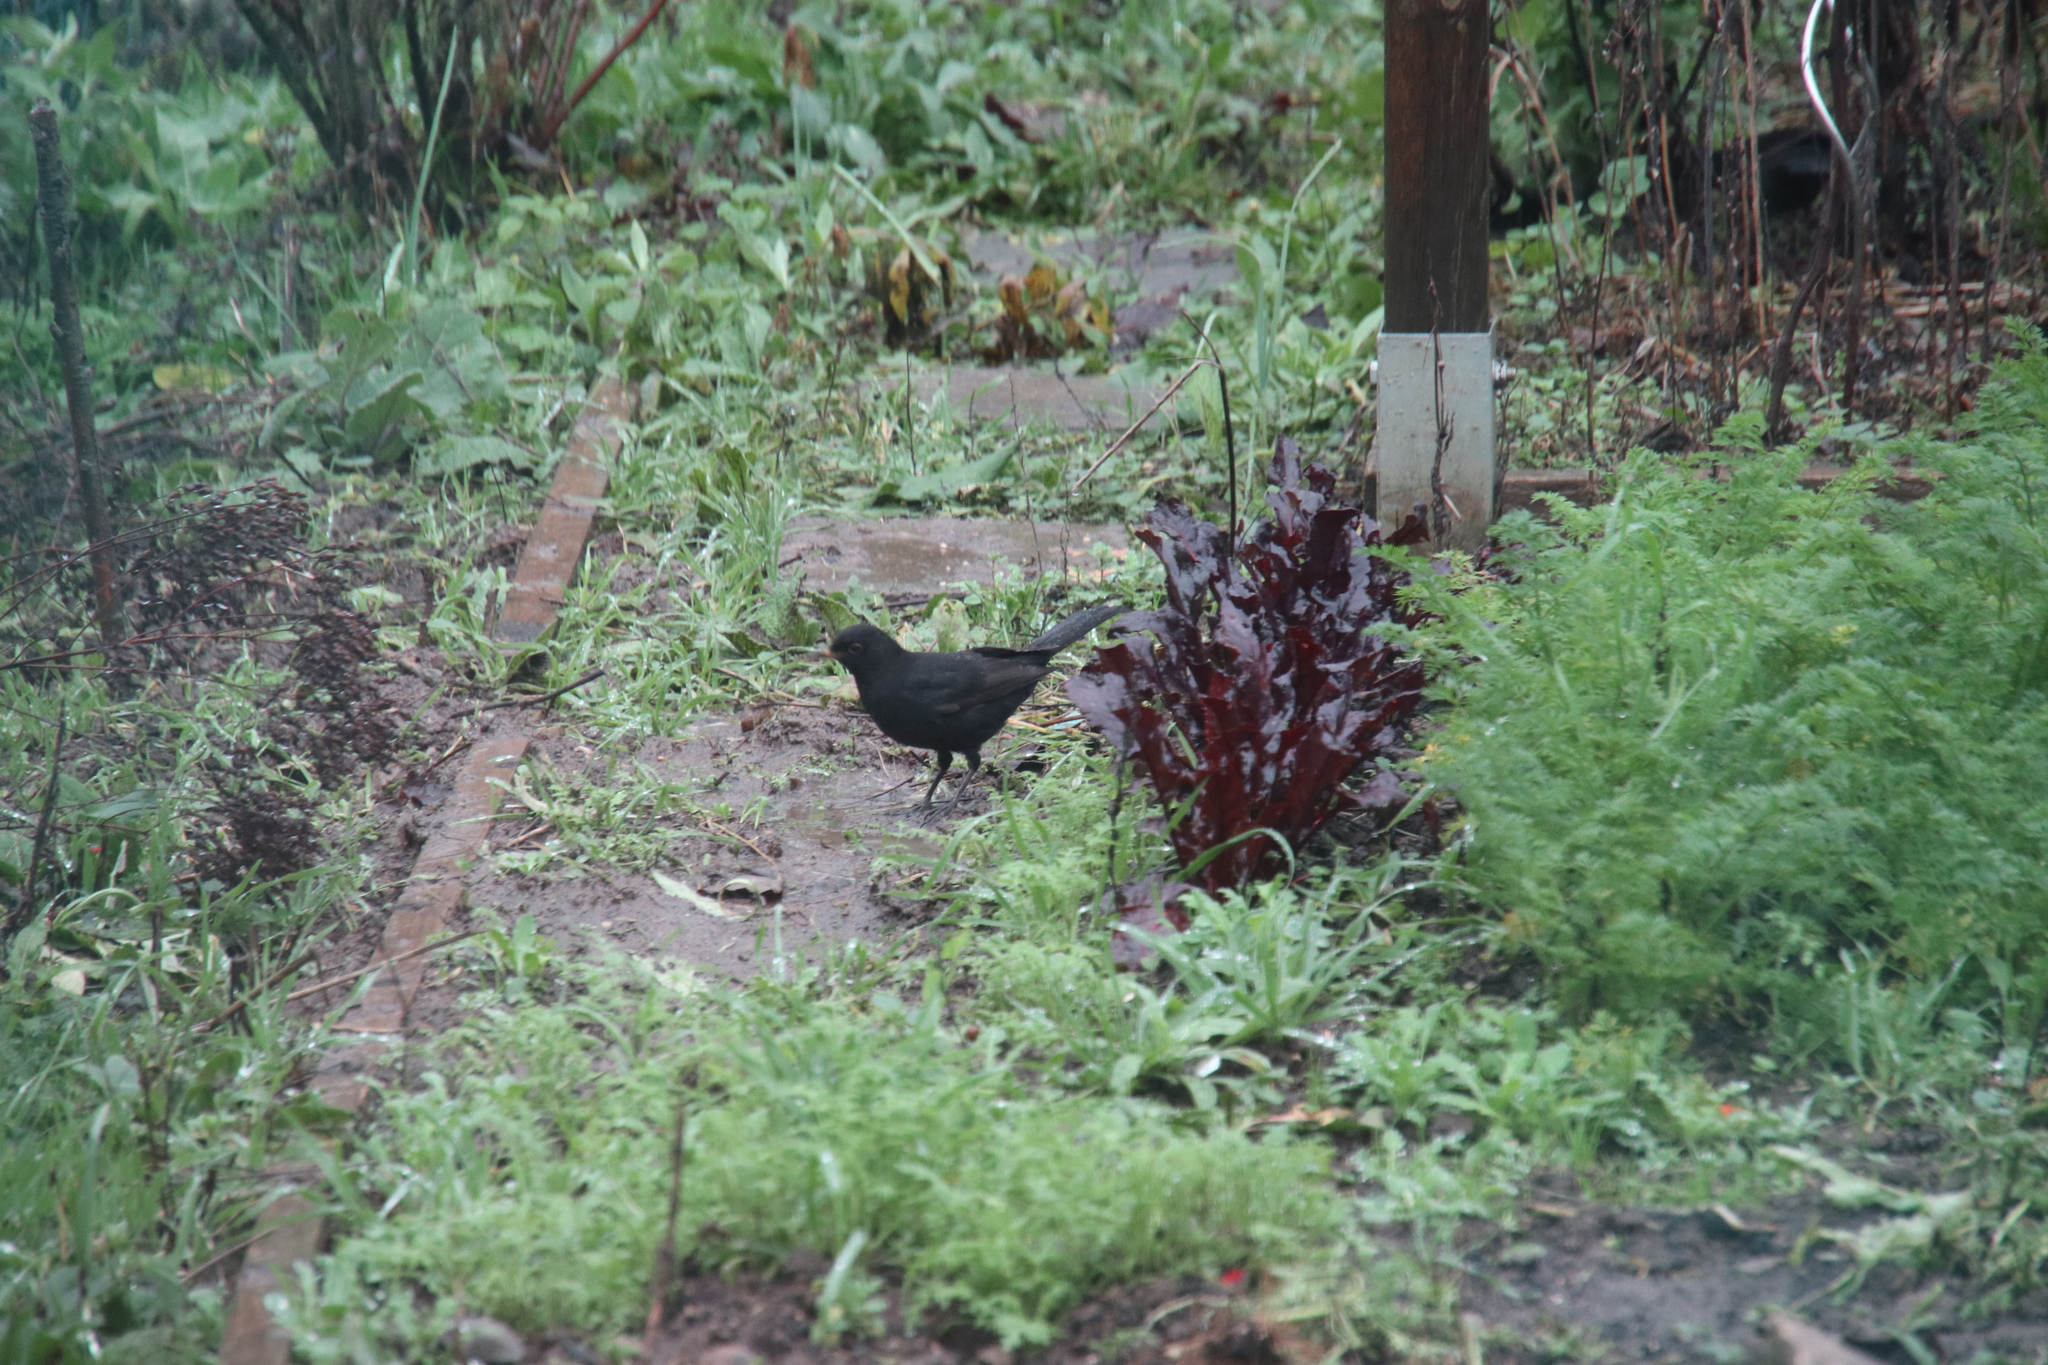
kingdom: Animalia
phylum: Chordata
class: Aves
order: Passeriformes
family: Turdidae
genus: Turdus
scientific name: Turdus merula
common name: Common blackbird
